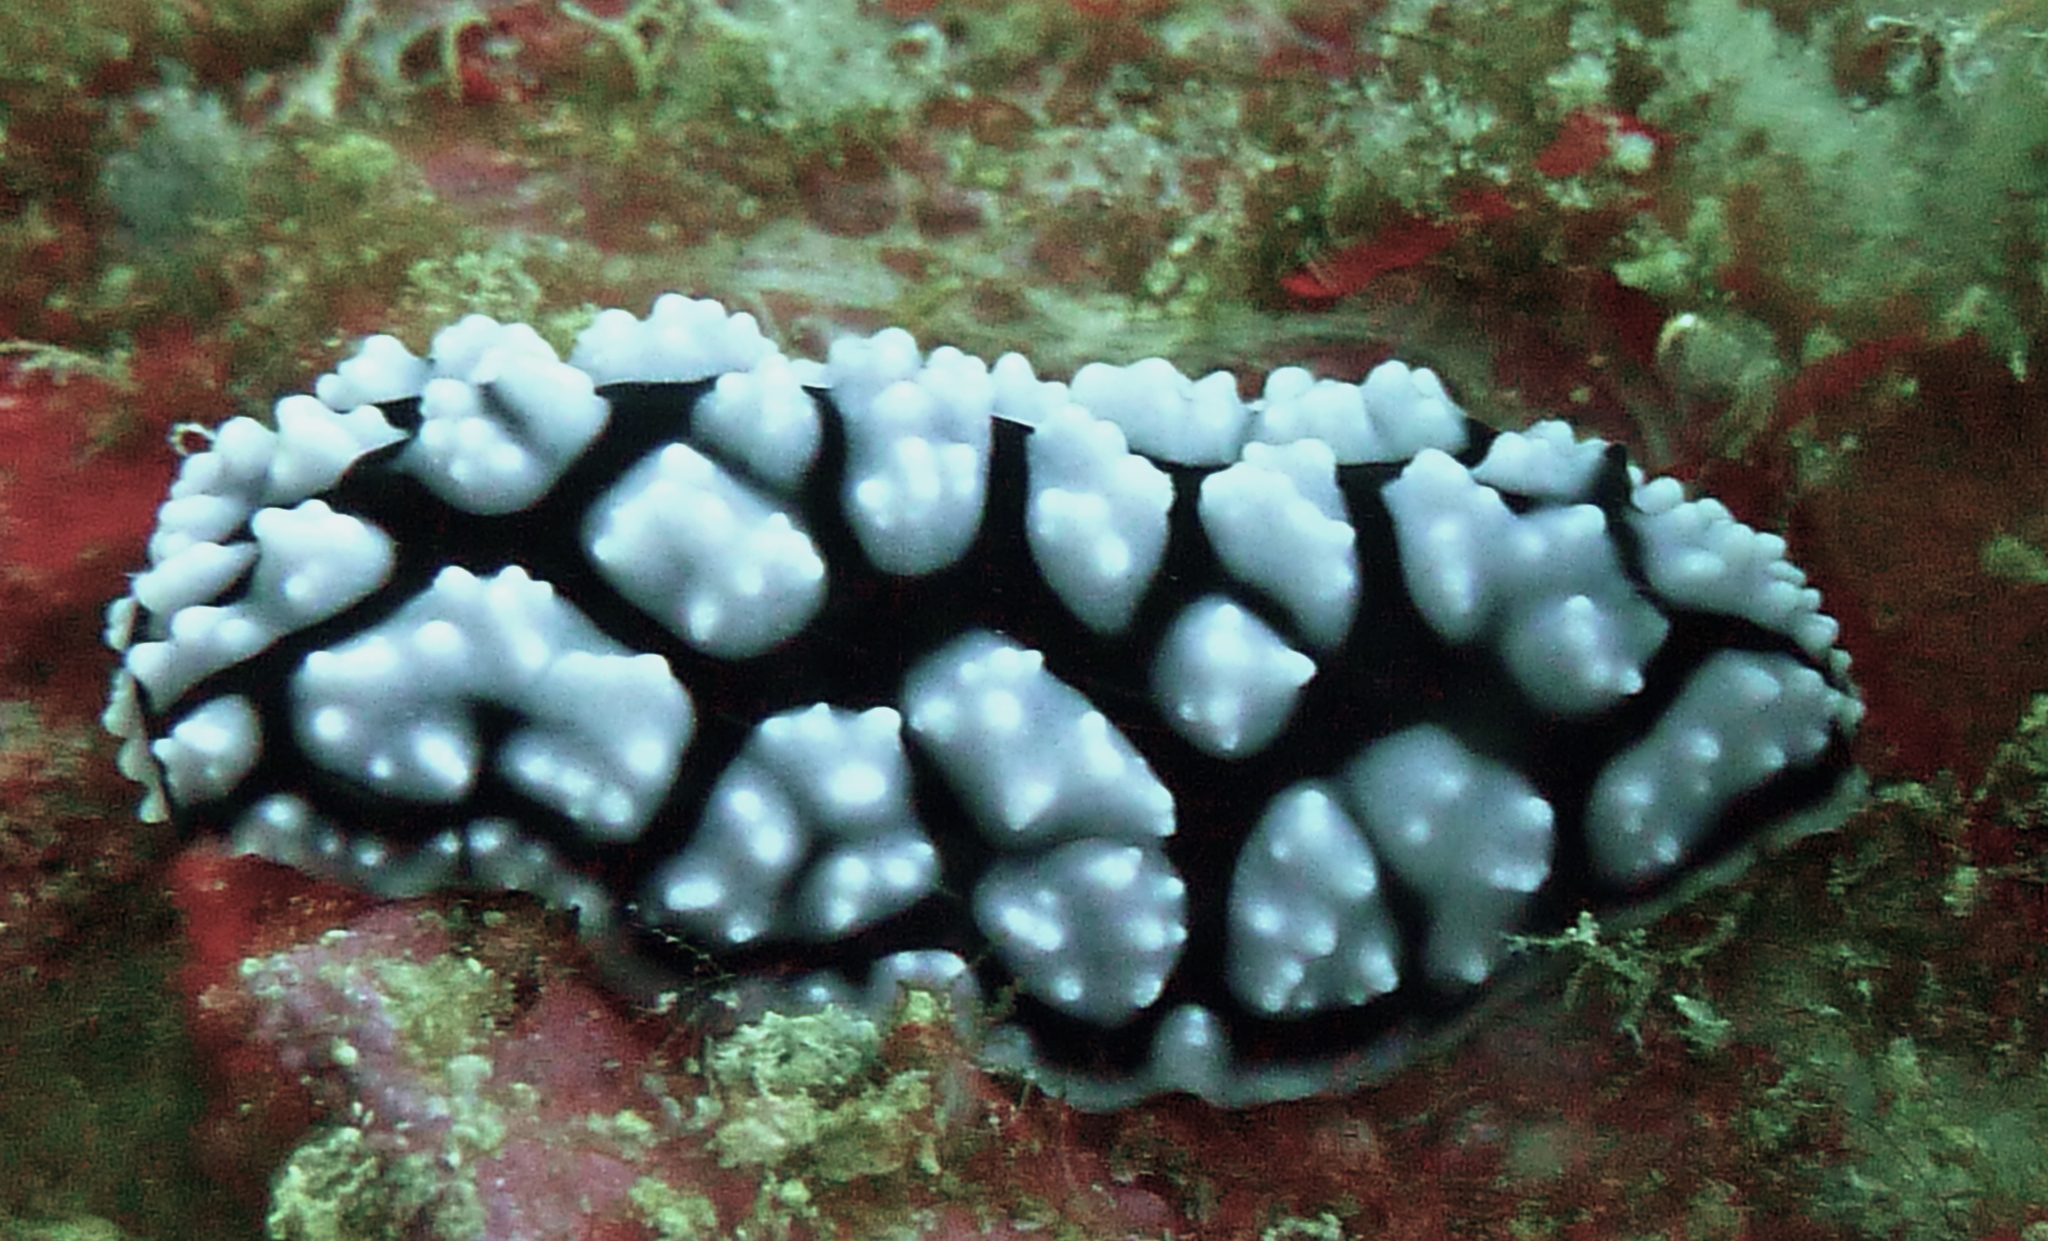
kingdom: Animalia
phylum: Mollusca
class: Gastropoda
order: Nudibranchia
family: Phyllidiidae
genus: Phyllidiella
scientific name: Phyllidiella pustulosa
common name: Pustular phyllidia
